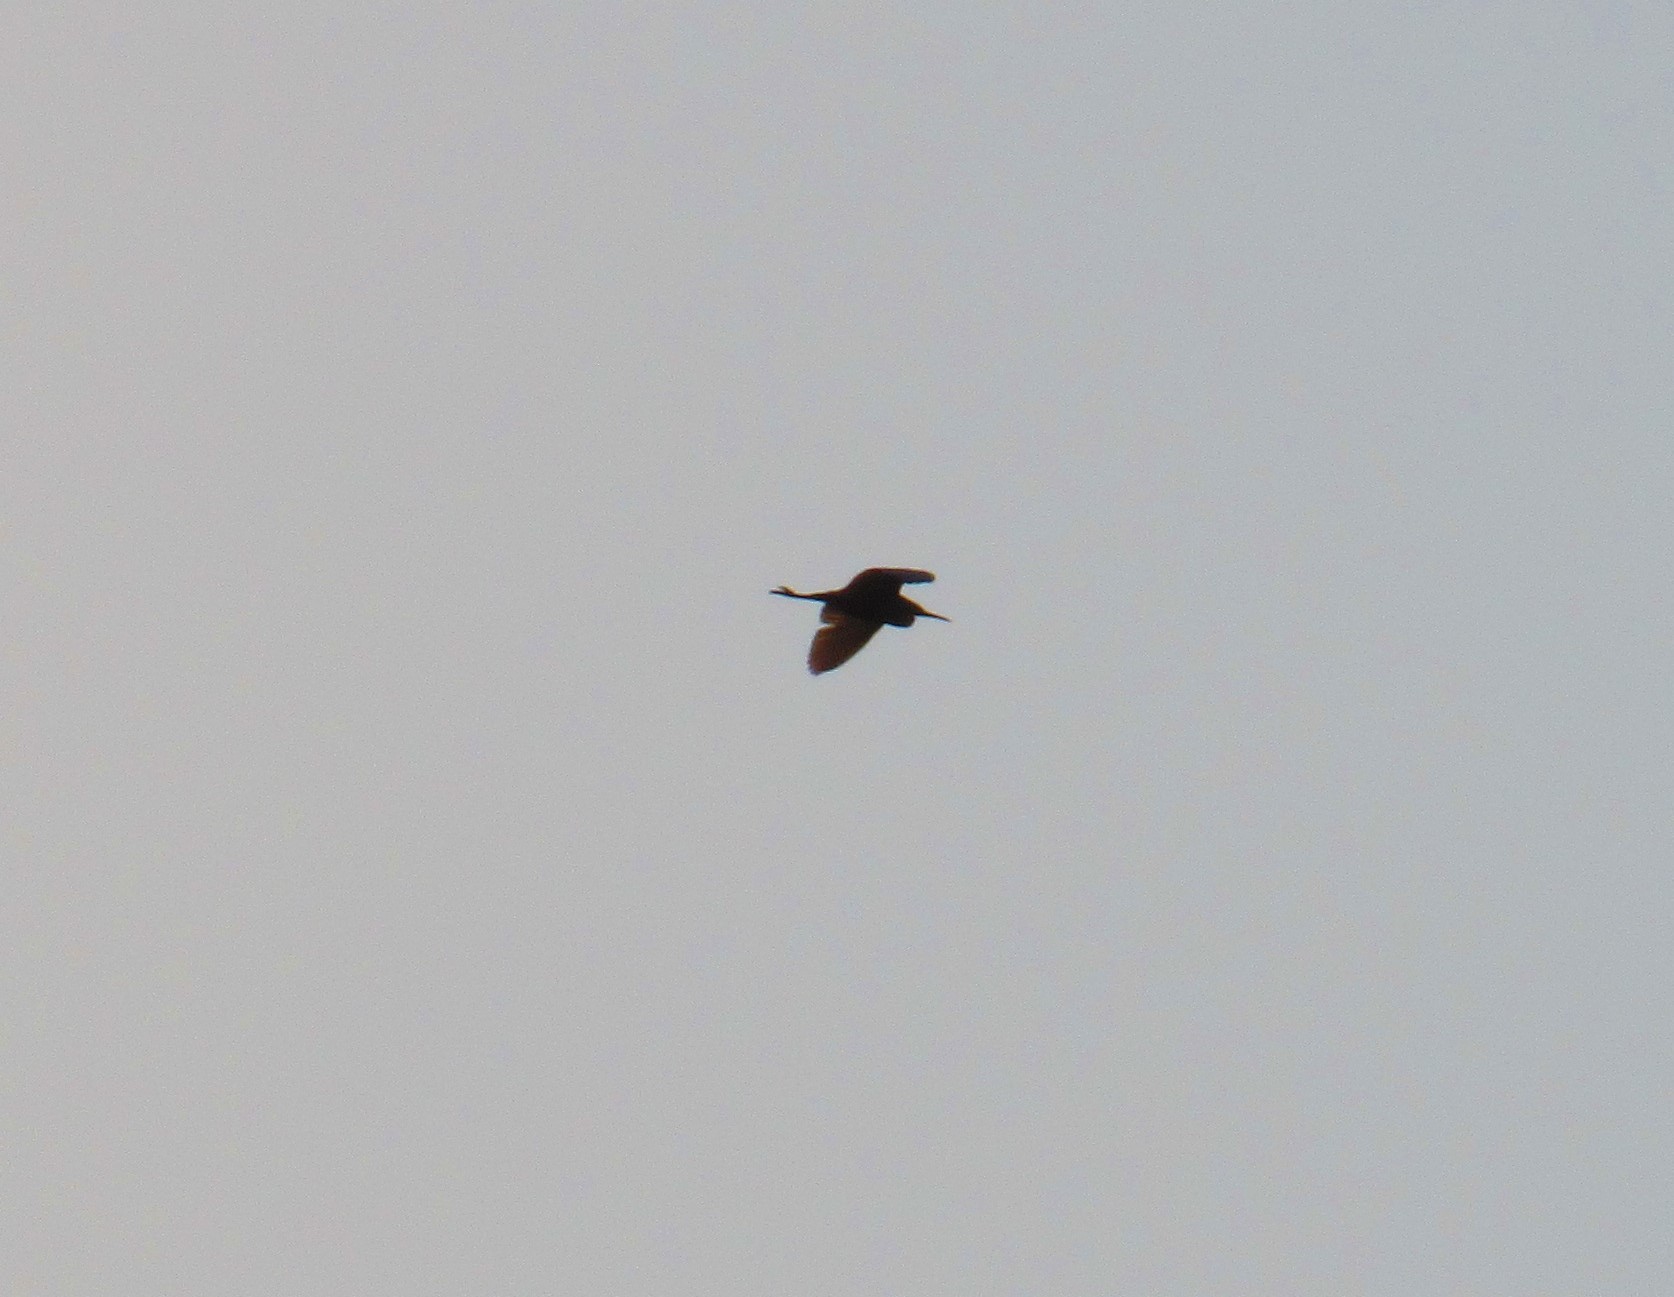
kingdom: Animalia
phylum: Chordata
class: Aves
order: Pelecaniformes
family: Ardeidae
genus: Bubulcus
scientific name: Bubulcus ibis
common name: Cattle egret
